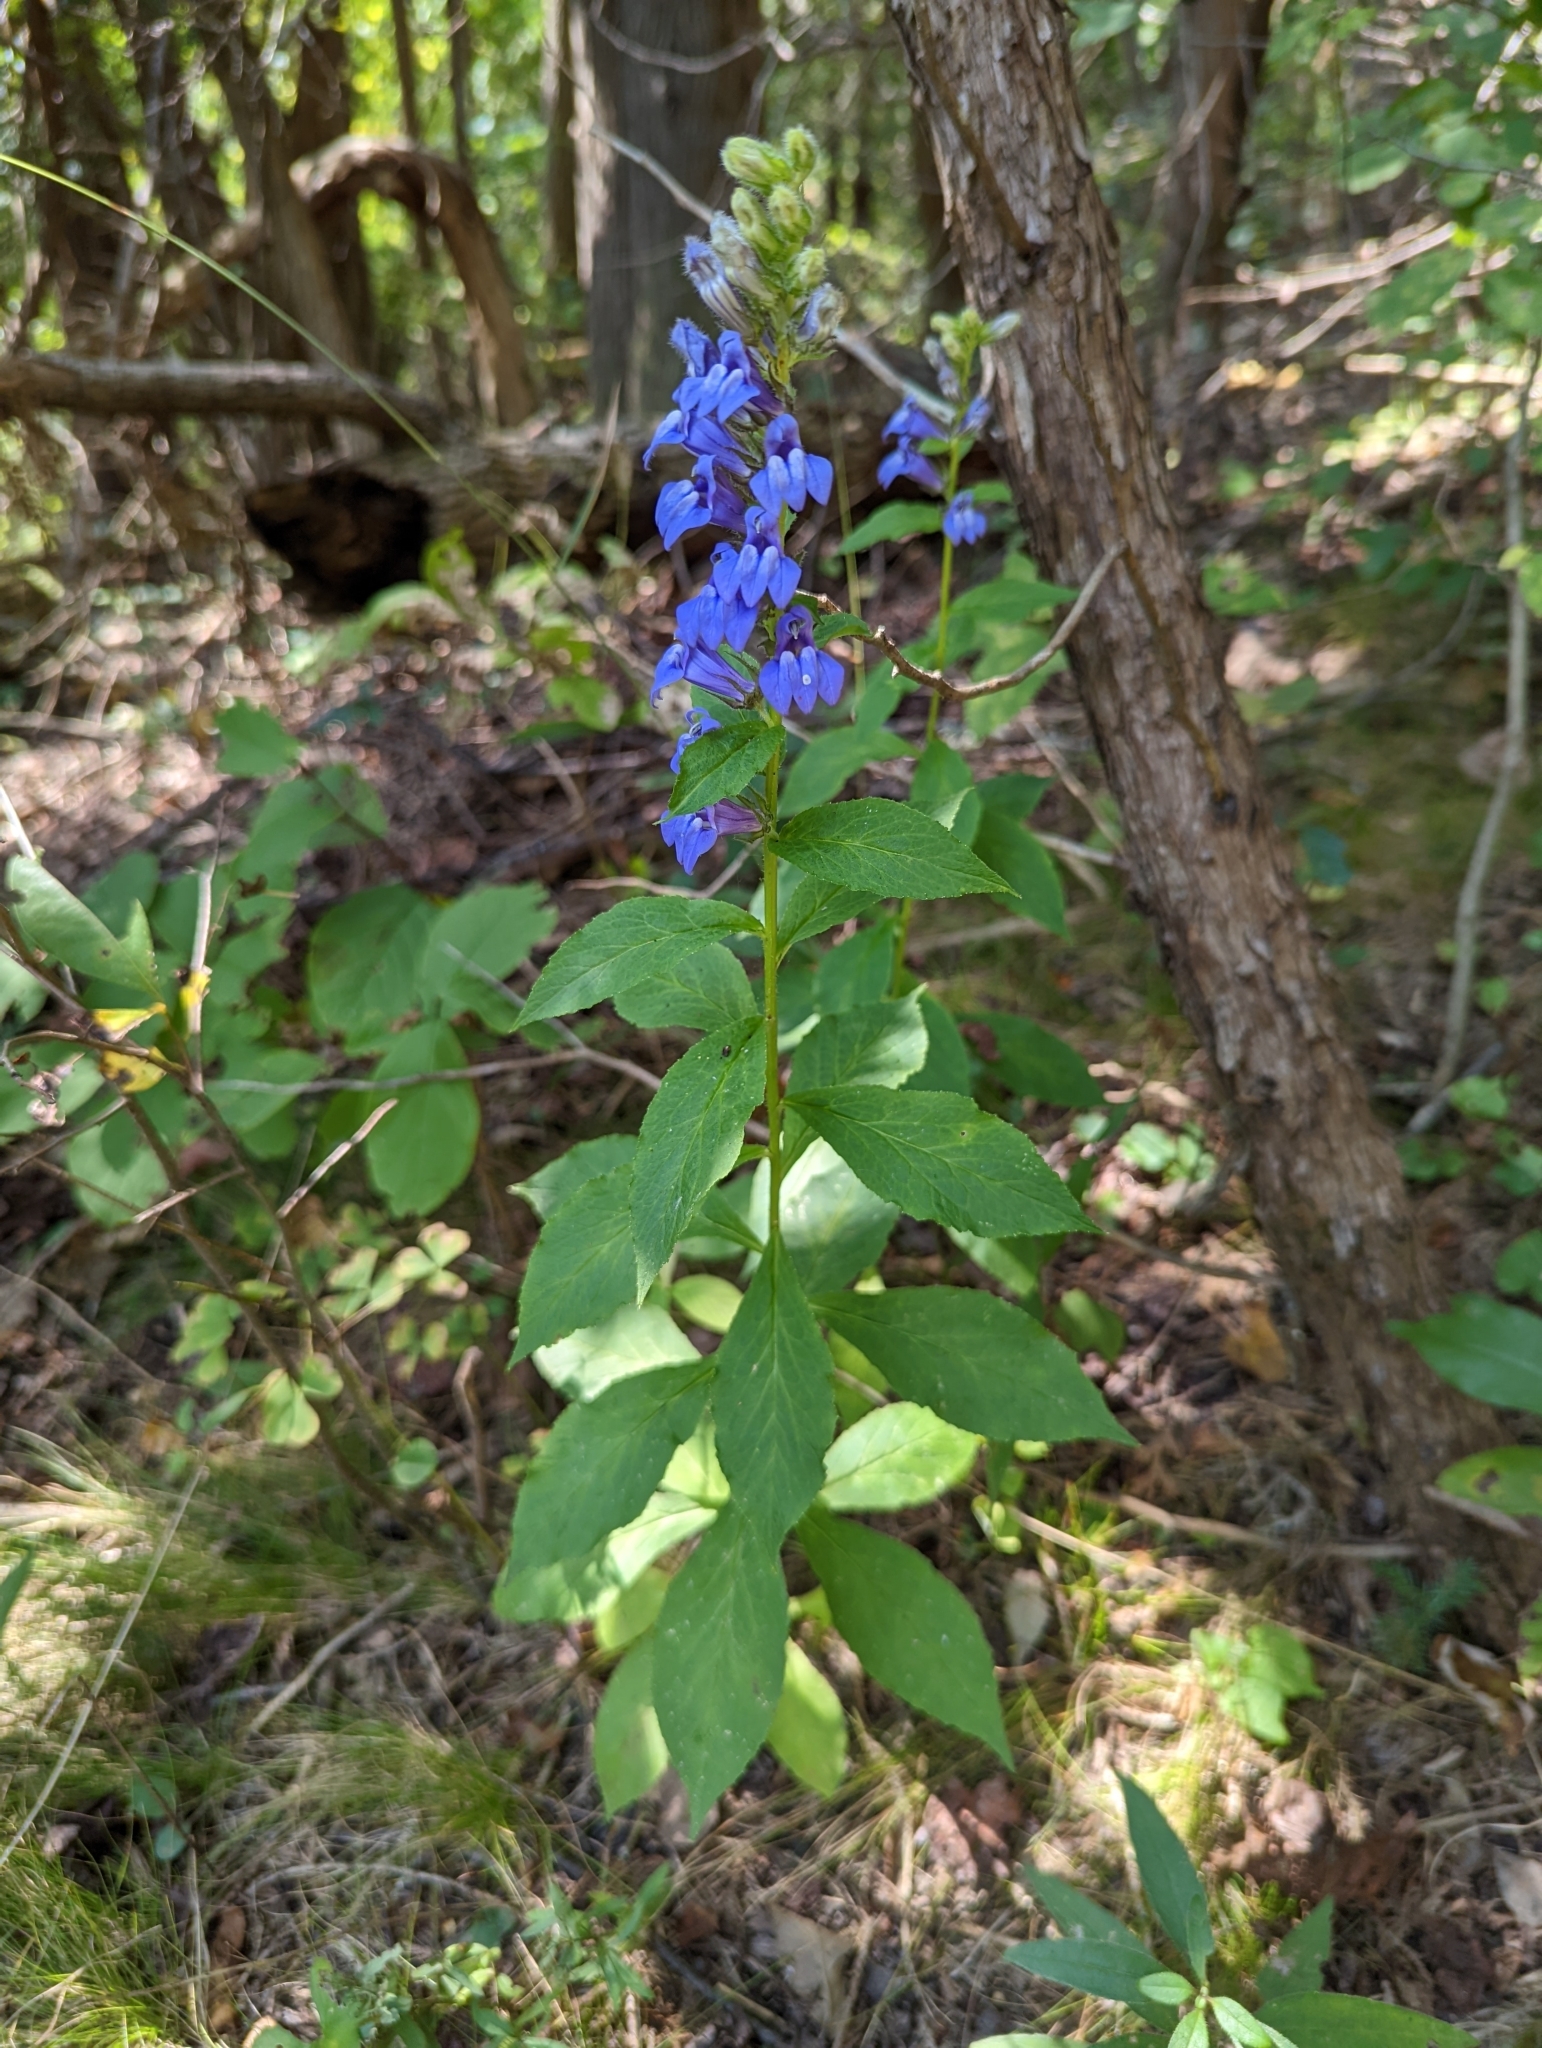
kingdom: Plantae
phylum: Tracheophyta
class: Magnoliopsida
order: Asterales
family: Campanulaceae
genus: Lobelia
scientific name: Lobelia siphilitica
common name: Great lobelia
